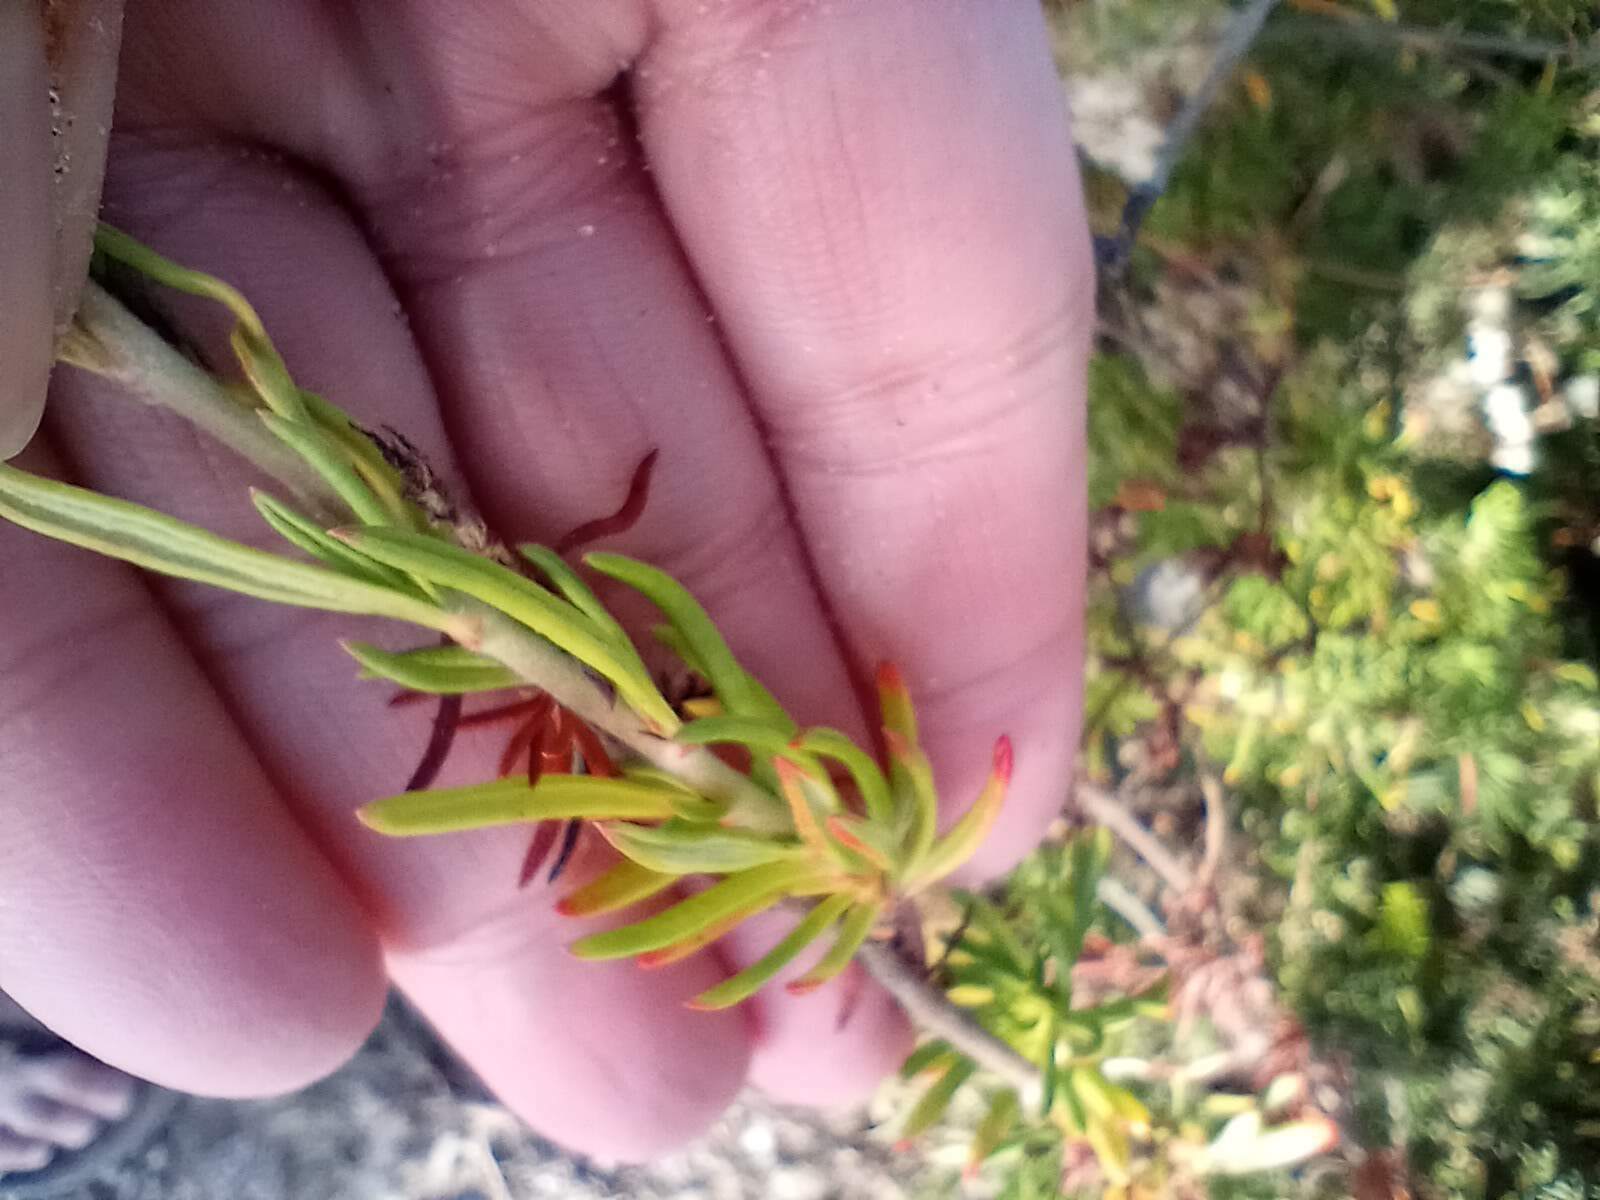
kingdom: Plantae
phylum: Tracheophyta
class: Magnoliopsida
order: Caryophyllales
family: Polygonaceae
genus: Eriogonum
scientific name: Eriogonum fasciculatum
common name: California wild buckwheat
